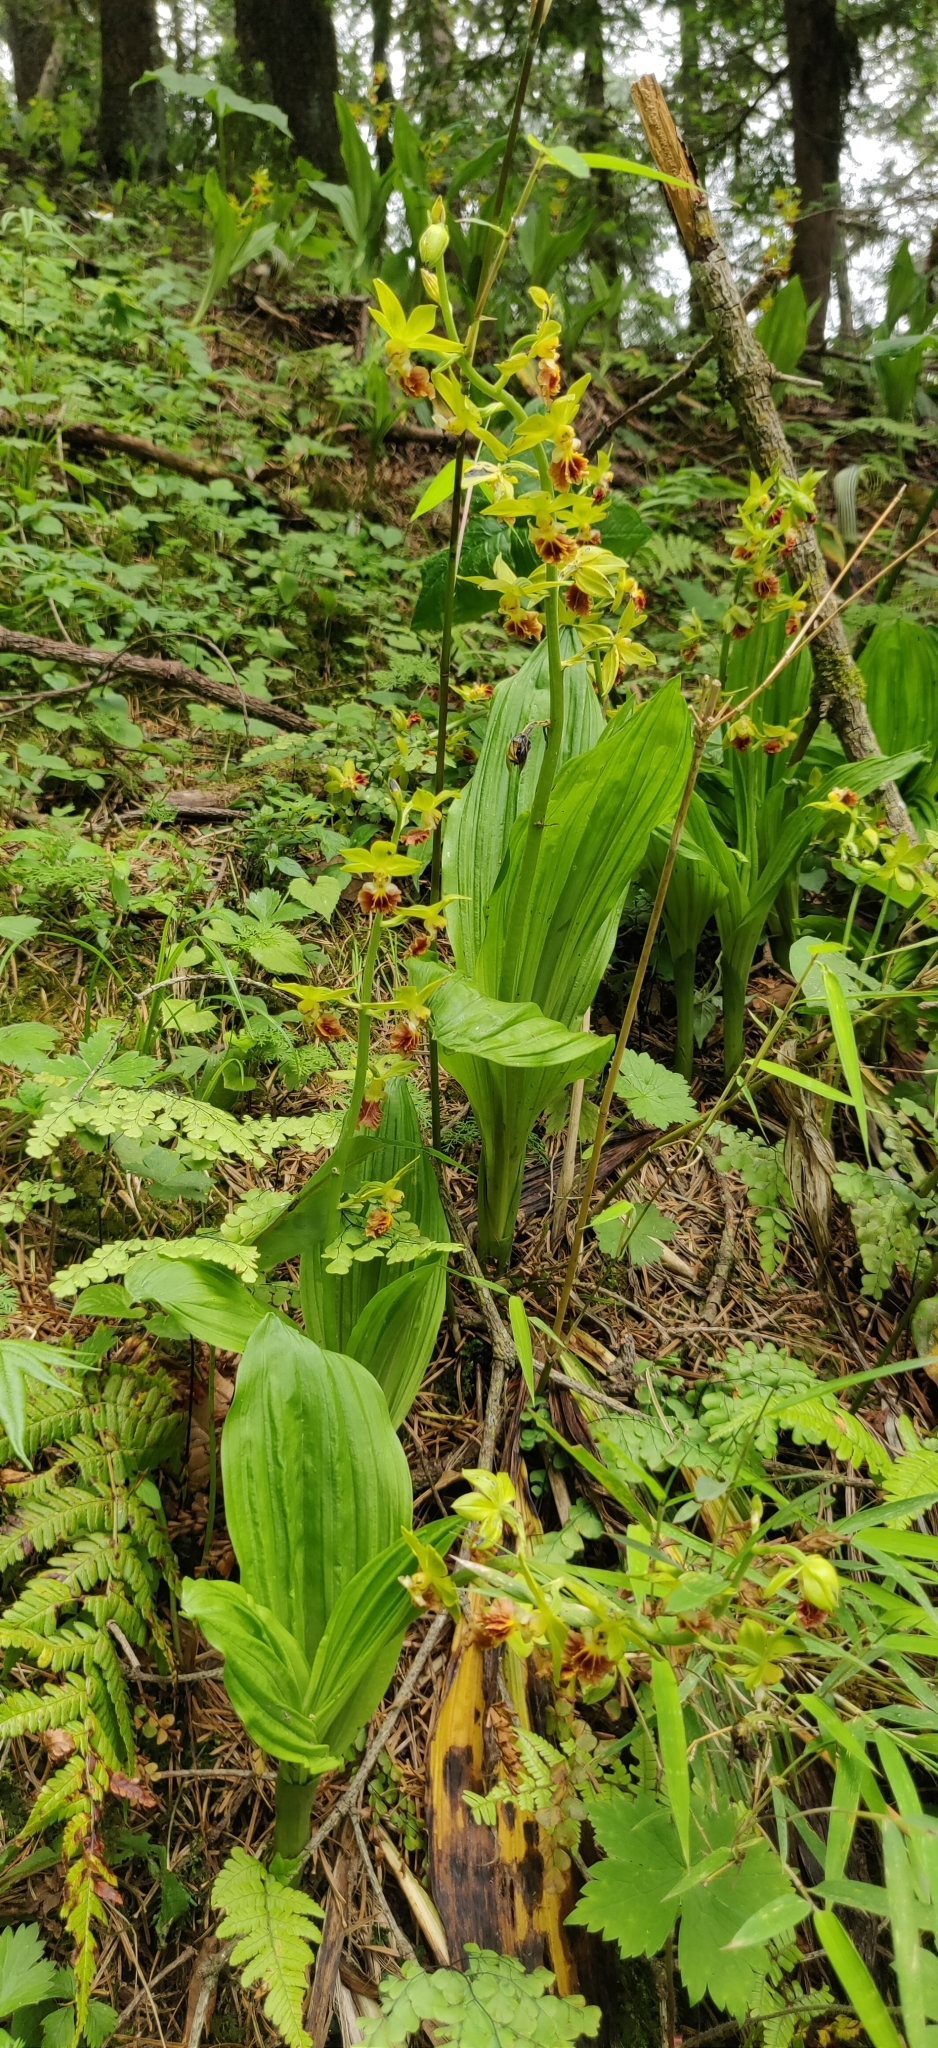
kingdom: Plantae
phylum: Tracheophyta
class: Liliopsida
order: Asparagales
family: Orchidaceae
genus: Calanthe
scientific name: Calanthe tricarinata
